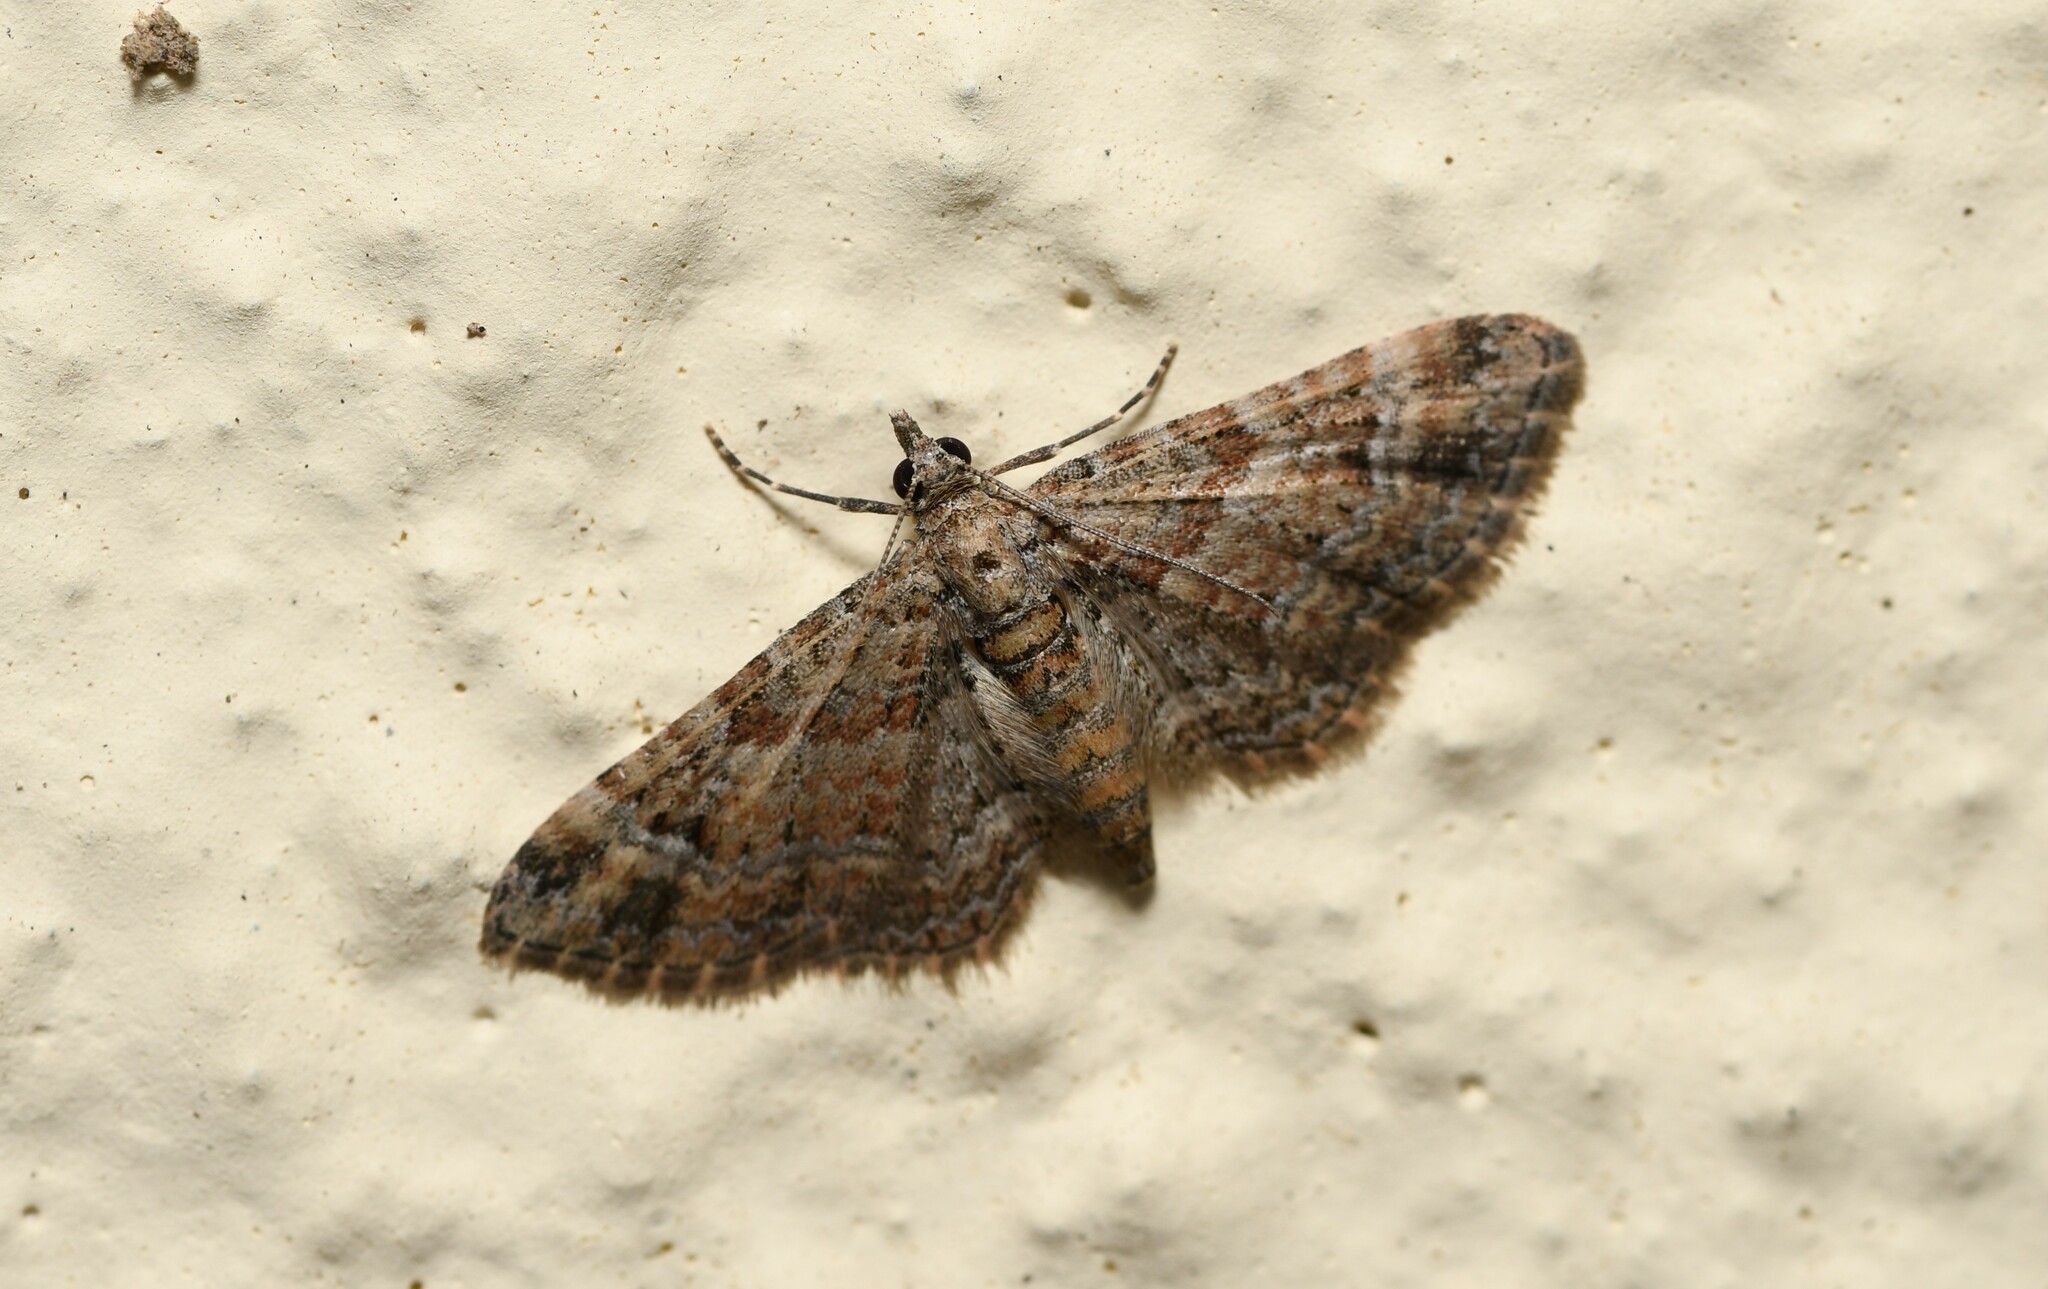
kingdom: Animalia
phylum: Arthropoda
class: Insecta
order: Lepidoptera
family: Geometridae
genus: Gymnoscelis
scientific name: Gymnoscelis rufifasciata
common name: Double-striped pug
